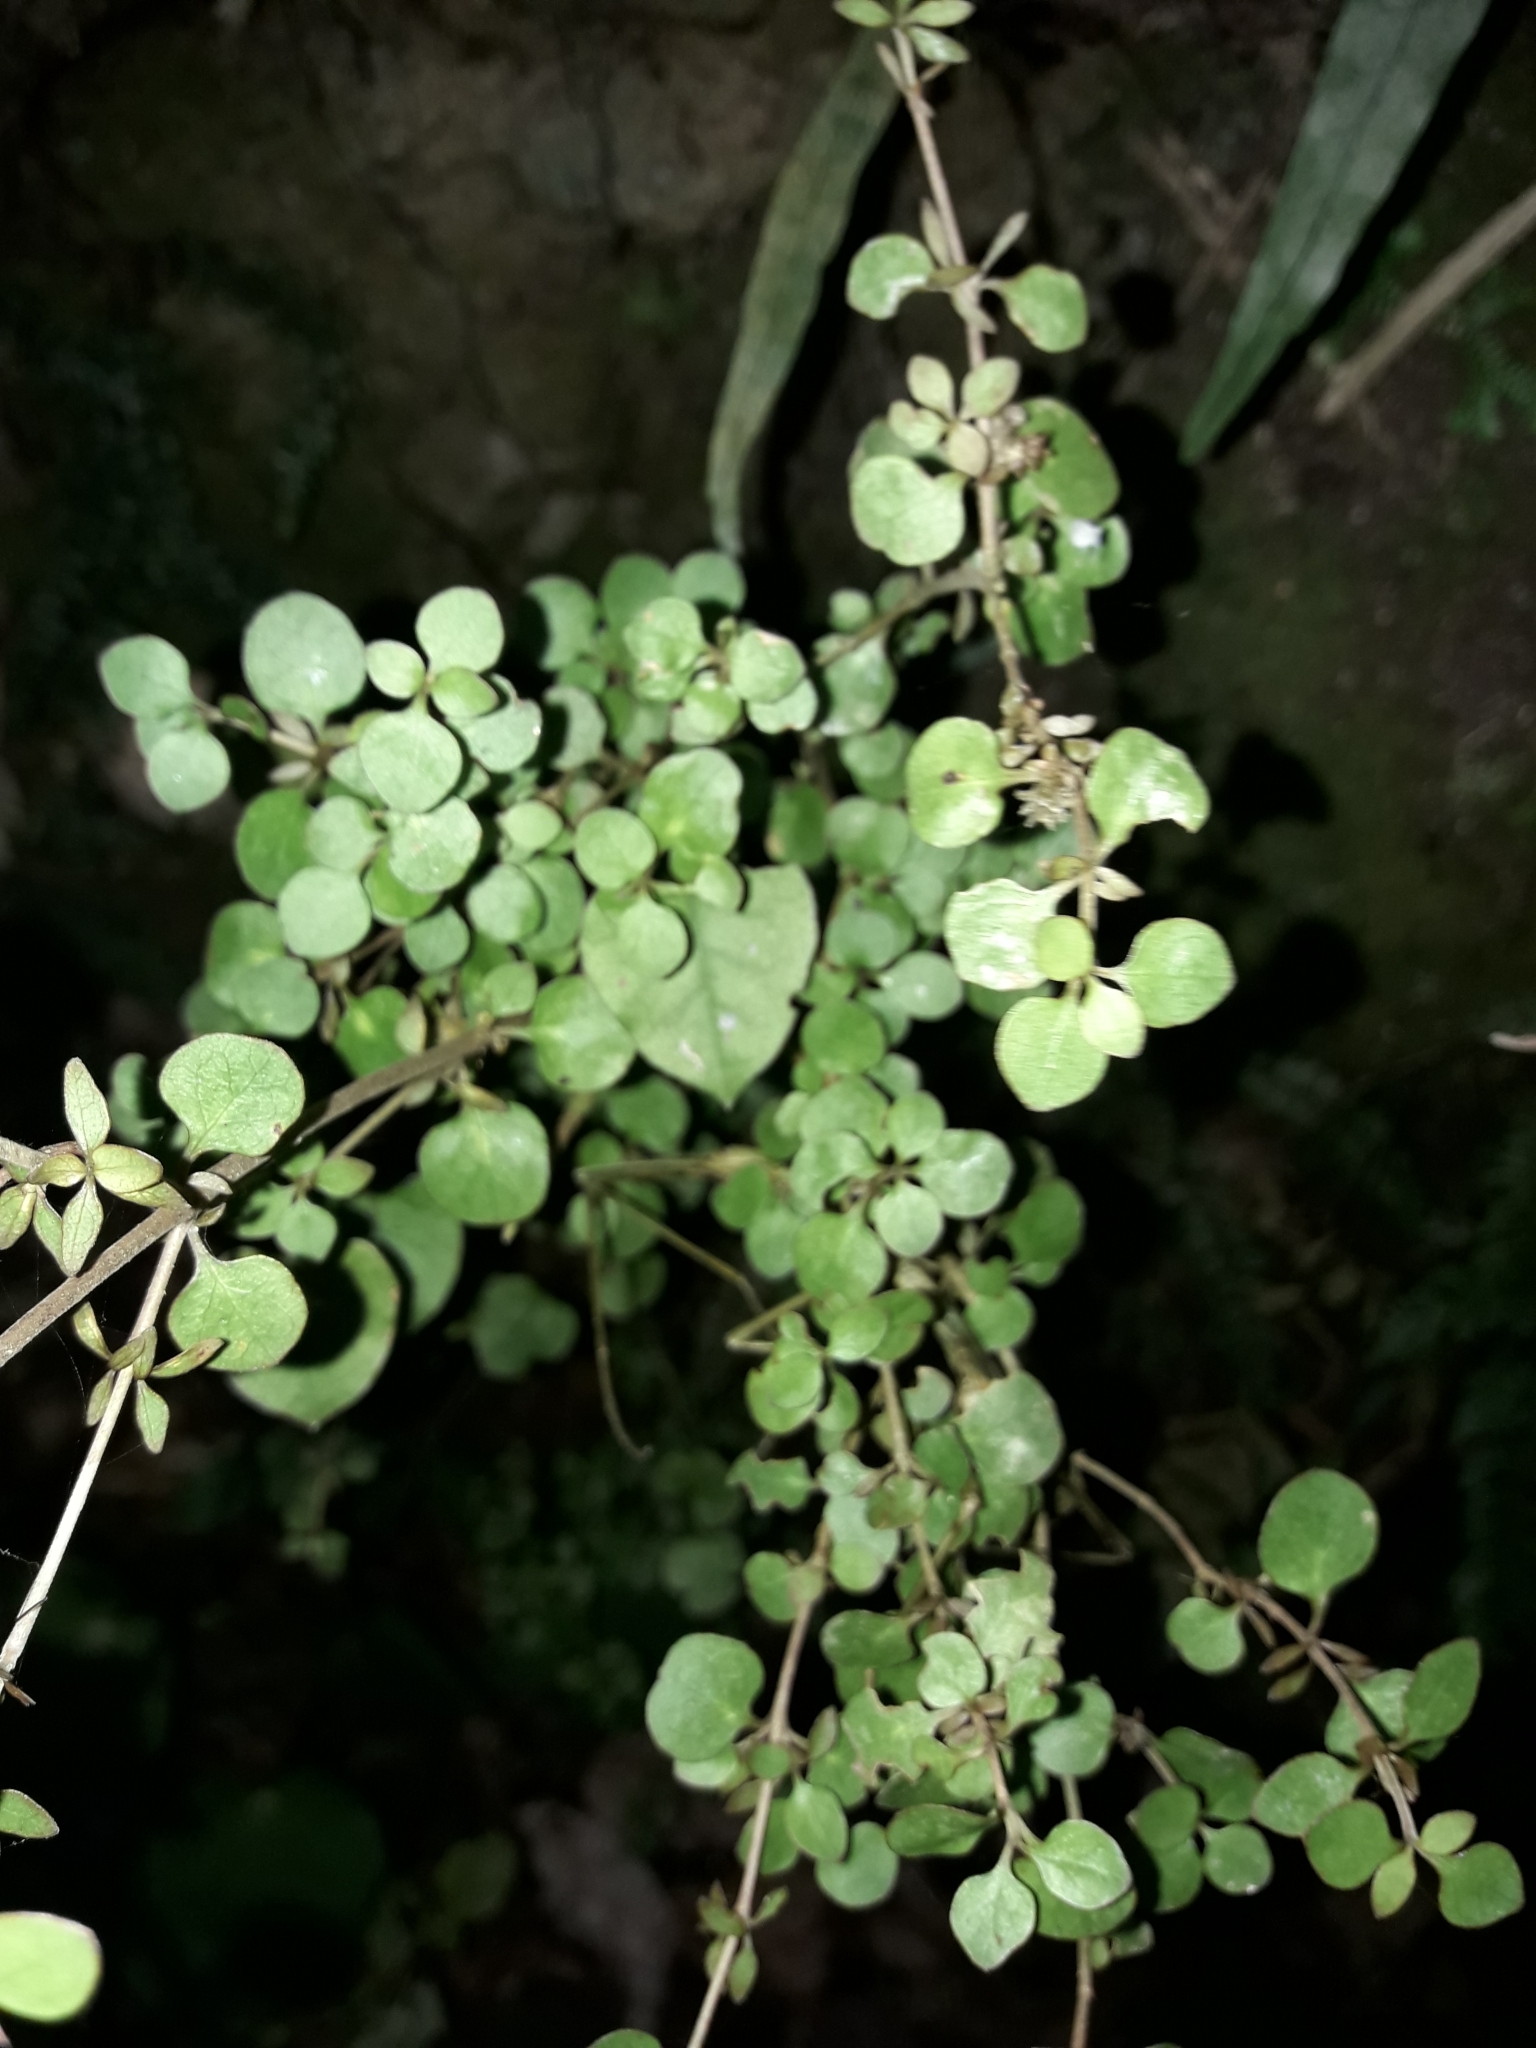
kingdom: Plantae
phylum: Tracheophyta
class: Magnoliopsida
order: Gentianales
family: Rubiaceae
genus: Coprosma
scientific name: Coprosma rhamnoides
